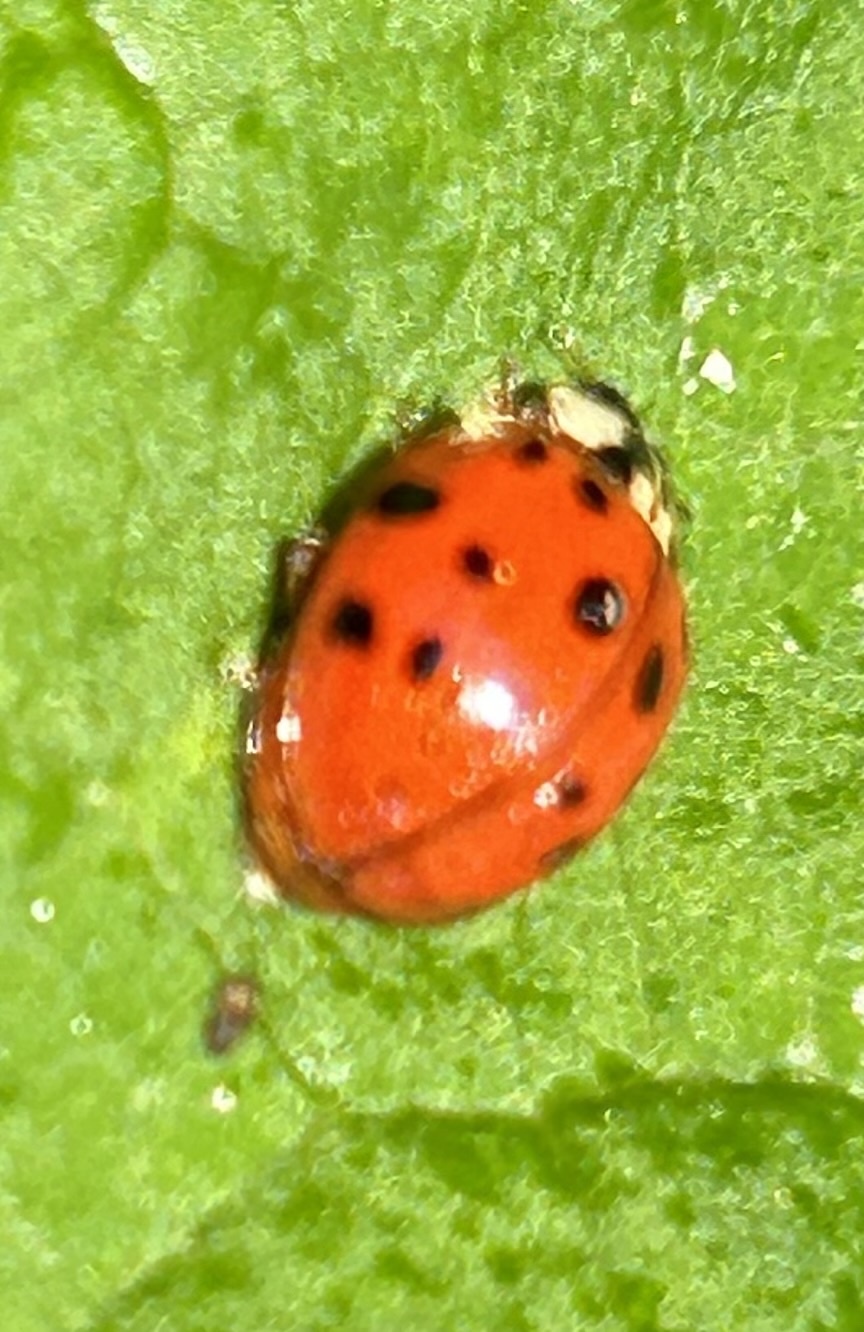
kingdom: Animalia
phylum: Arthropoda
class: Insecta
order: Coleoptera
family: Coccinellidae
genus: Harmonia
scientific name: Harmonia axyridis
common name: Harlequin ladybird
